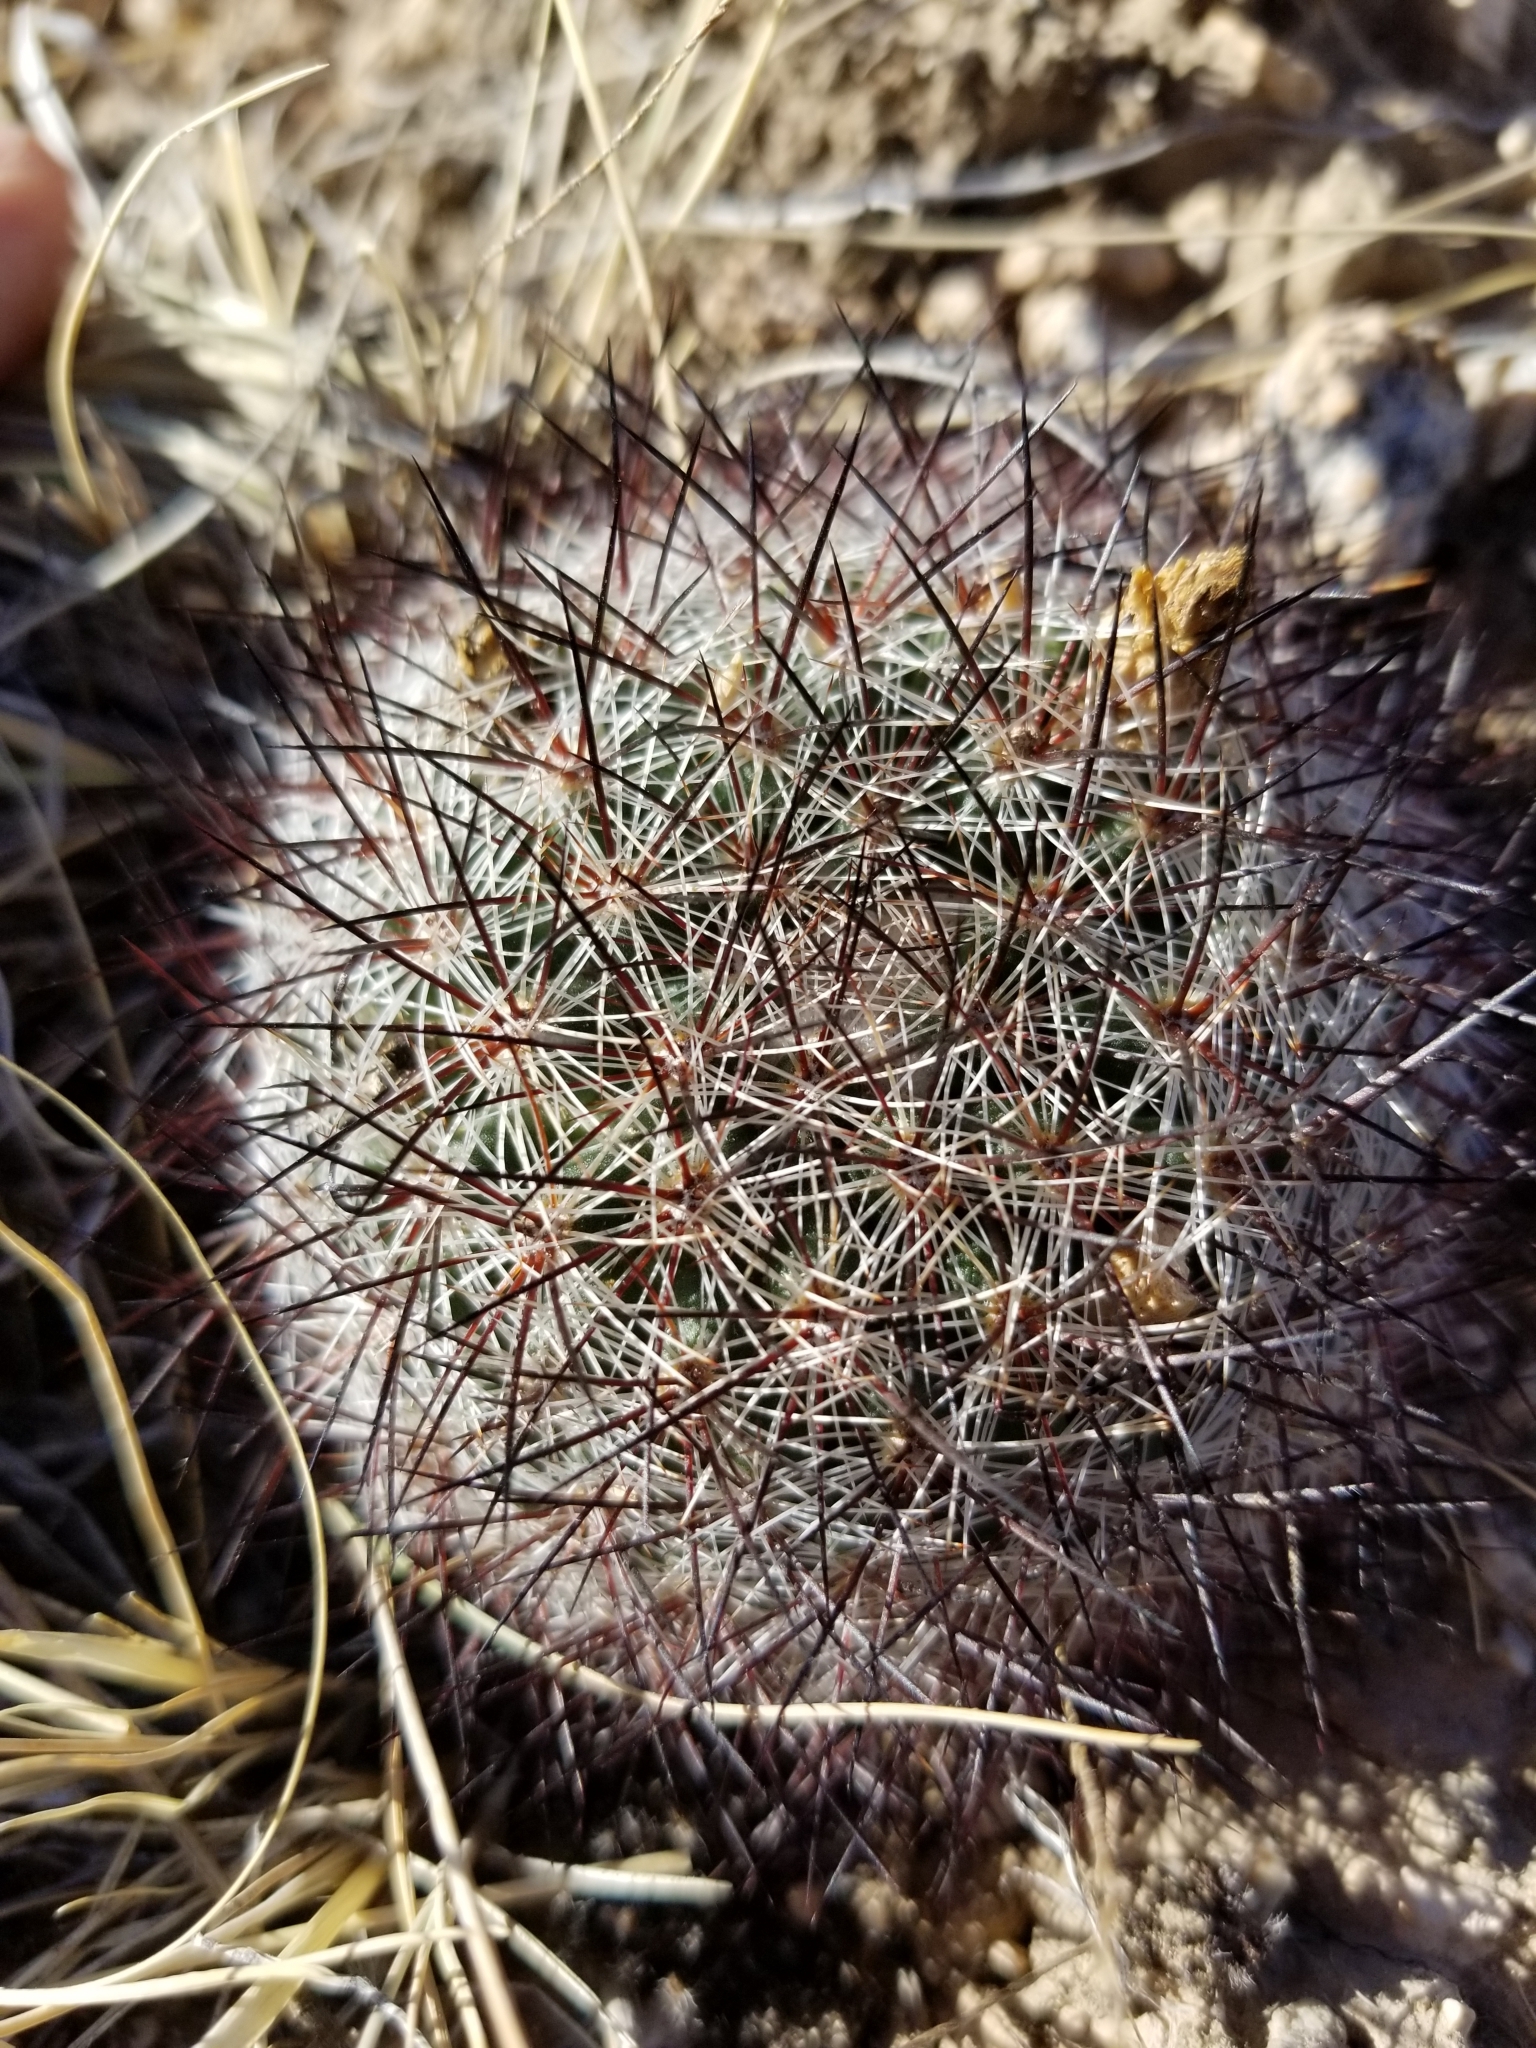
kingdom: Plantae
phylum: Tracheophyta
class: Magnoliopsida
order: Caryophyllales
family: Cactaceae
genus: Pediocactus
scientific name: Pediocactus simpsonii
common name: Simpson's hedgehog cactus
